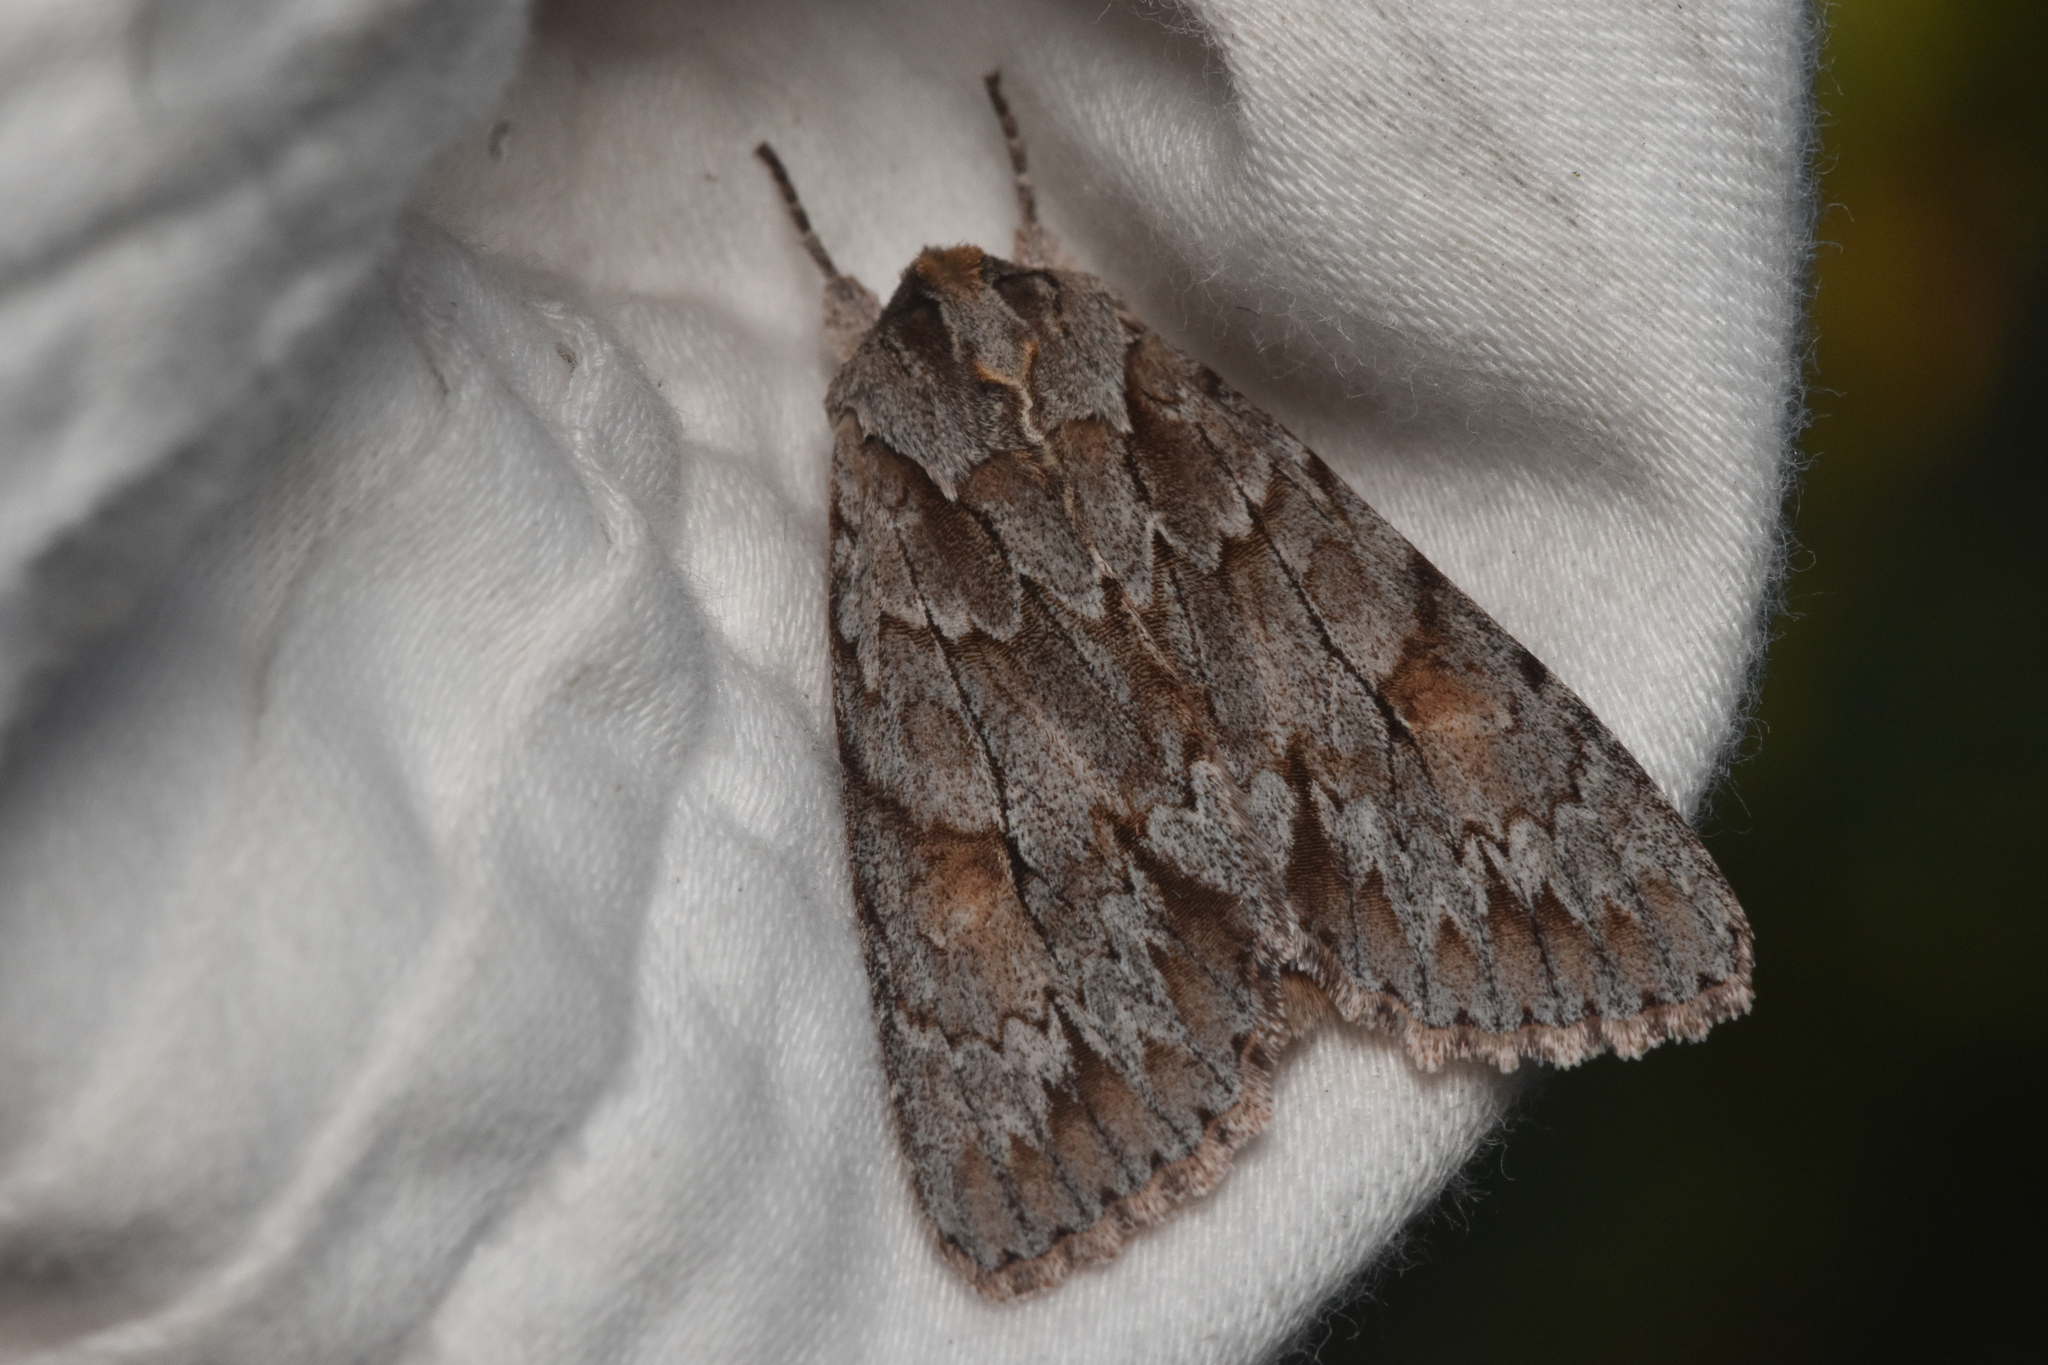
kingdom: Animalia
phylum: Arthropoda
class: Insecta
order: Lepidoptera
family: Noctuidae
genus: Andropolia
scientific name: Andropolia theodori
